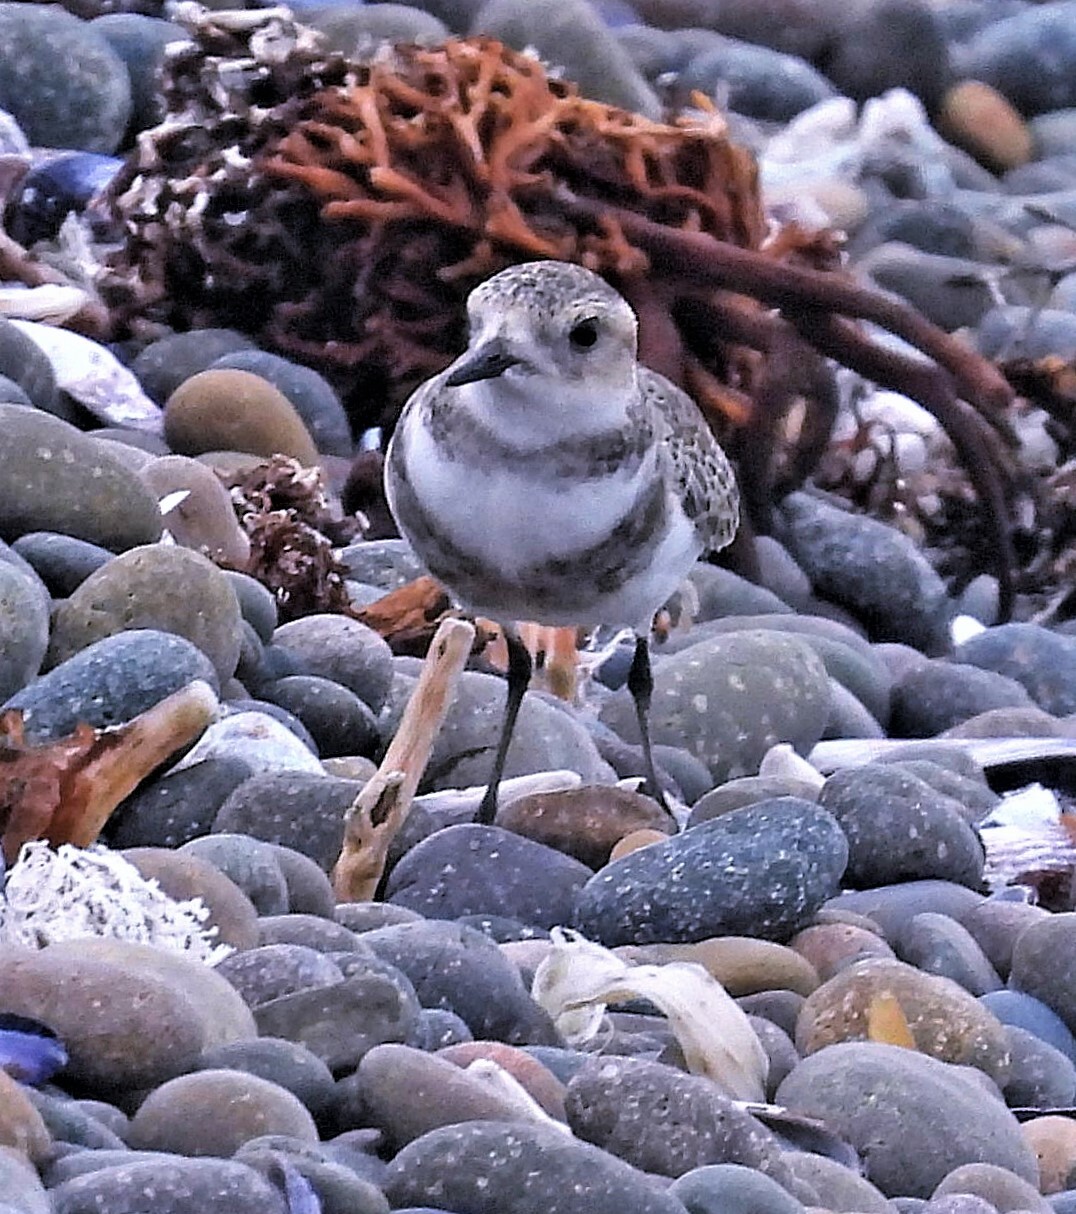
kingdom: Animalia
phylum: Chordata
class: Aves
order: Charadriiformes
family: Charadriidae
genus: Anarhynchus
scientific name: Anarhynchus
